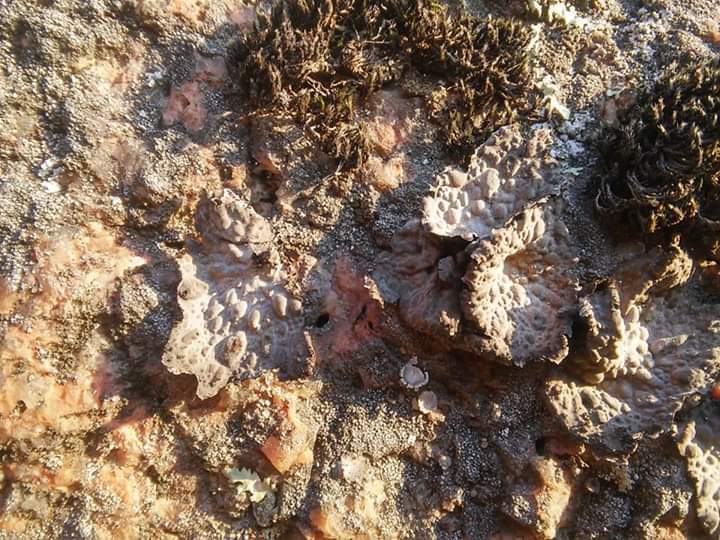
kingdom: Fungi
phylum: Ascomycota
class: Lecanoromycetes
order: Umbilicariales
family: Umbilicariaceae
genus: Lasallia
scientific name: Lasallia pustulata
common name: Blistered toadskin lichen
